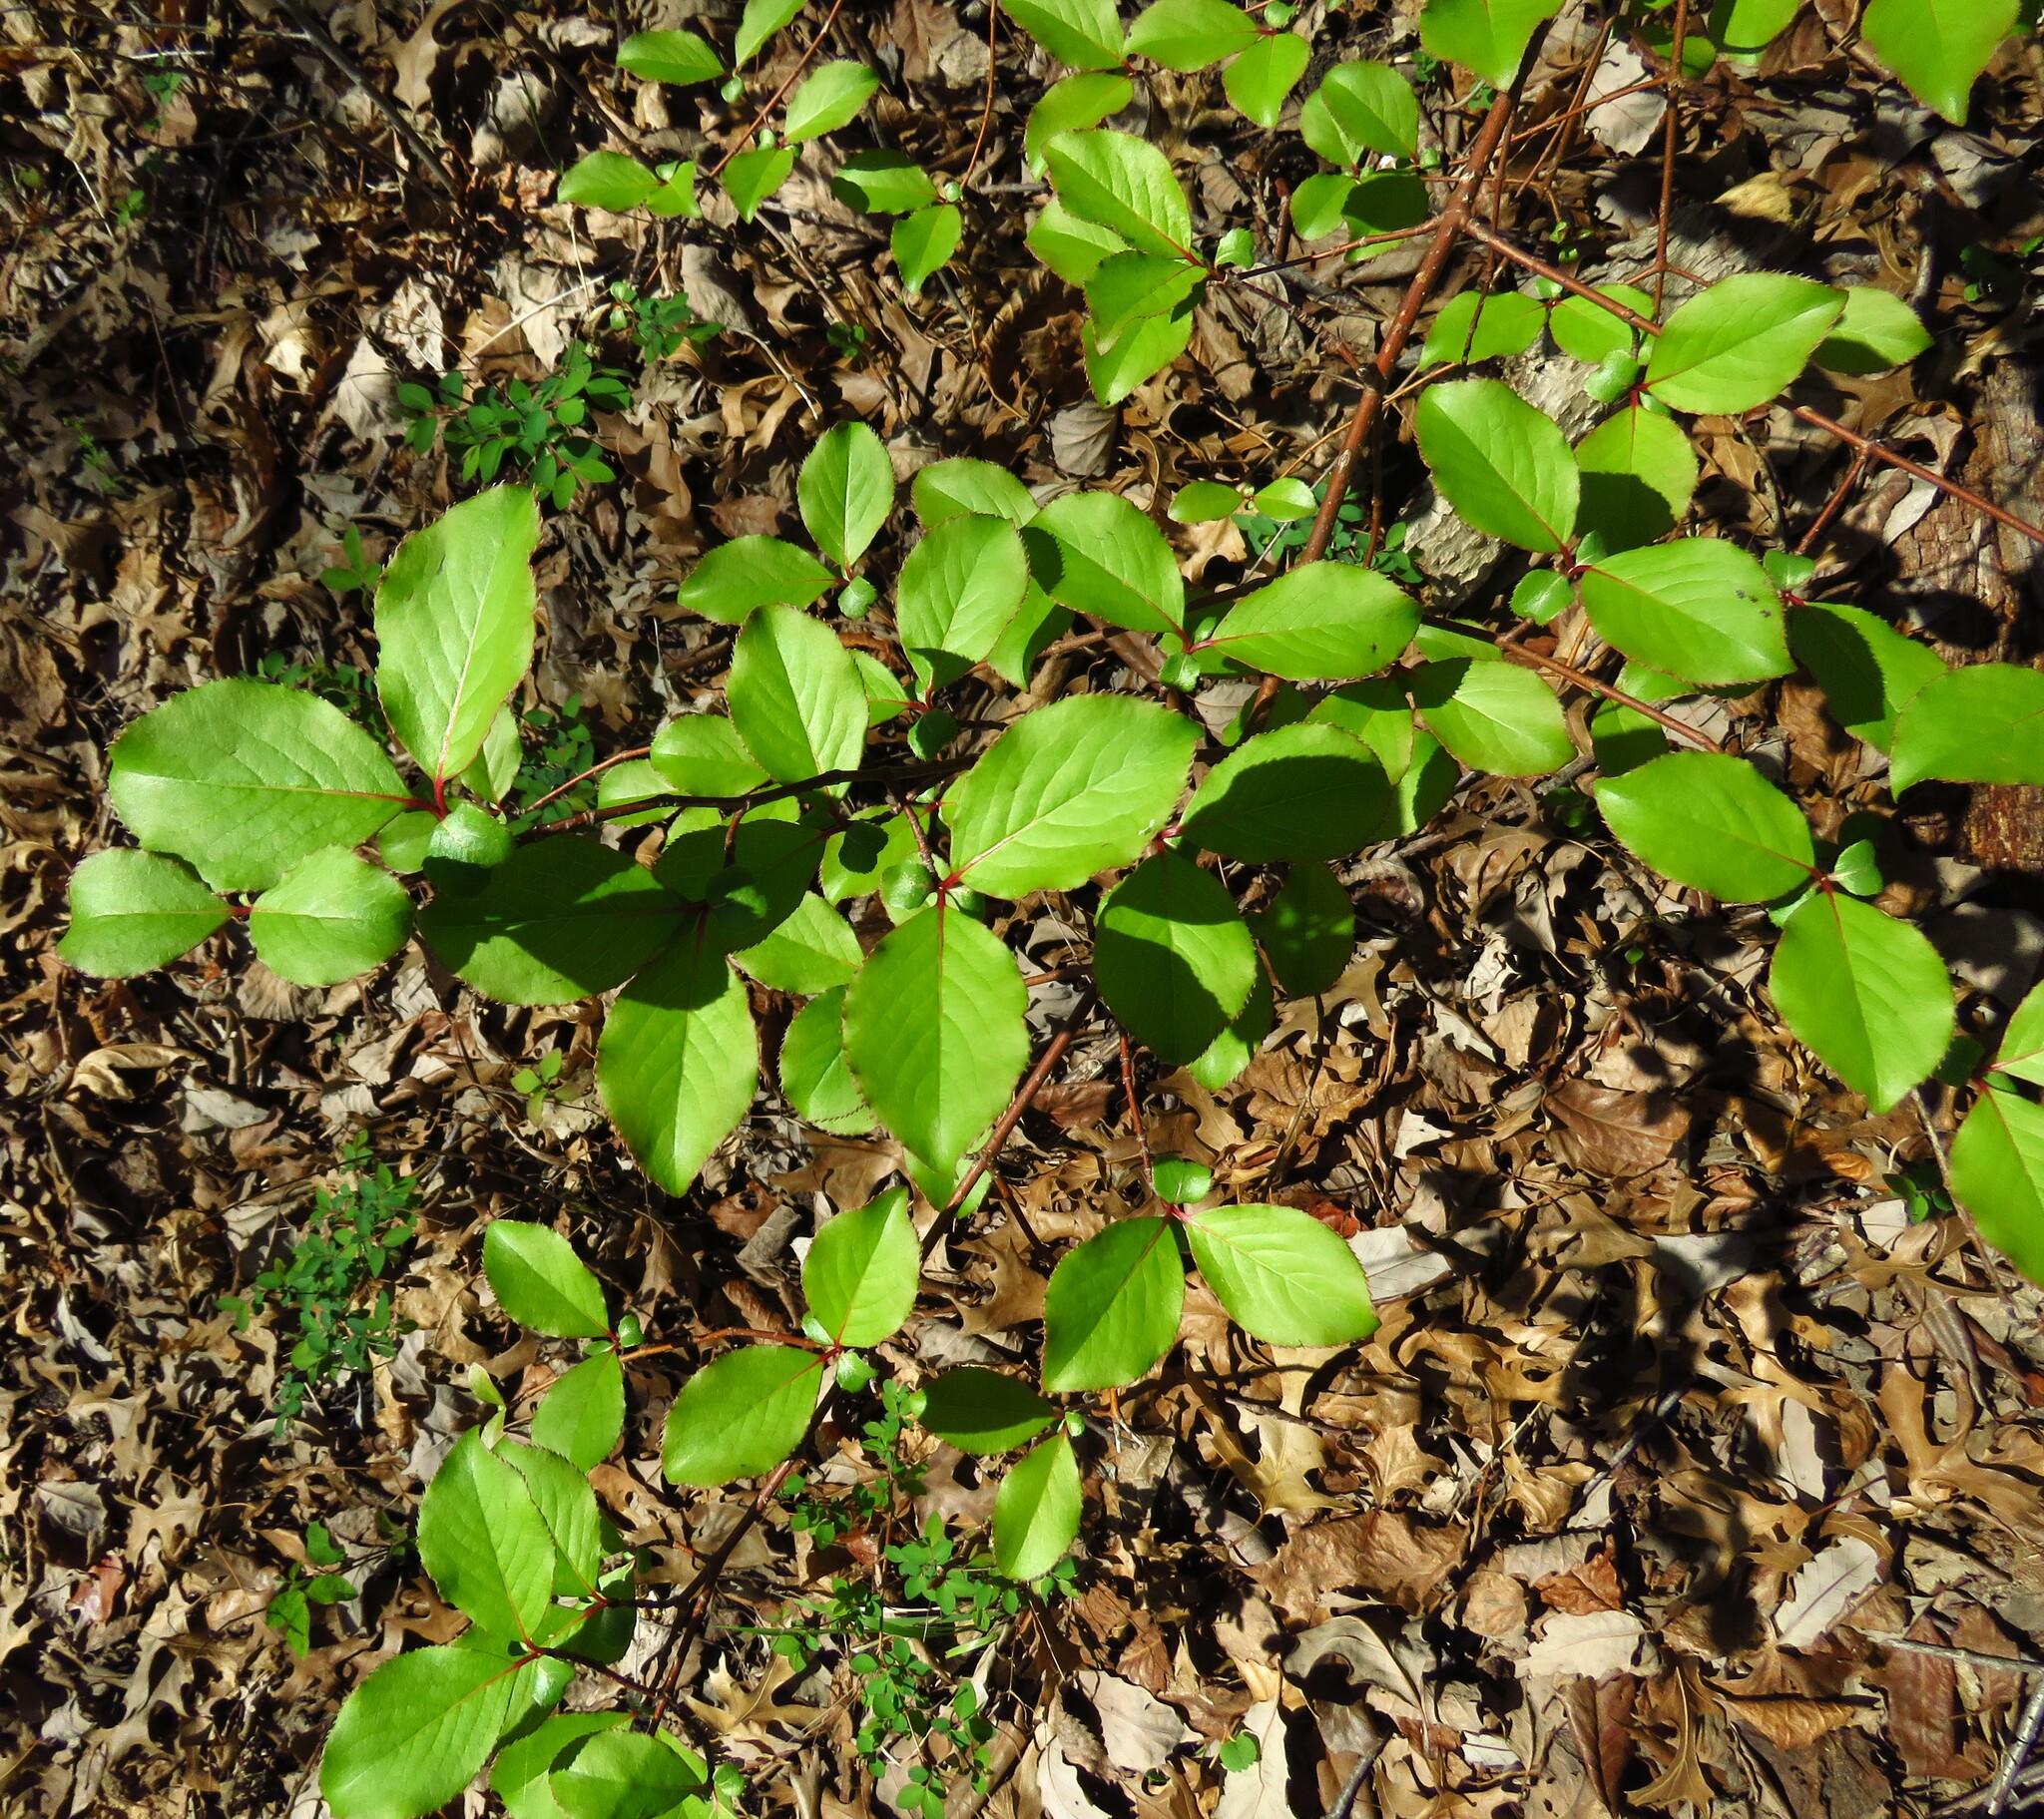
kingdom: Plantae
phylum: Tracheophyta
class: Magnoliopsida
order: Dipsacales
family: Viburnaceae
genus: Viburnum
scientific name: Viburnum rufidulum
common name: Blue haw
